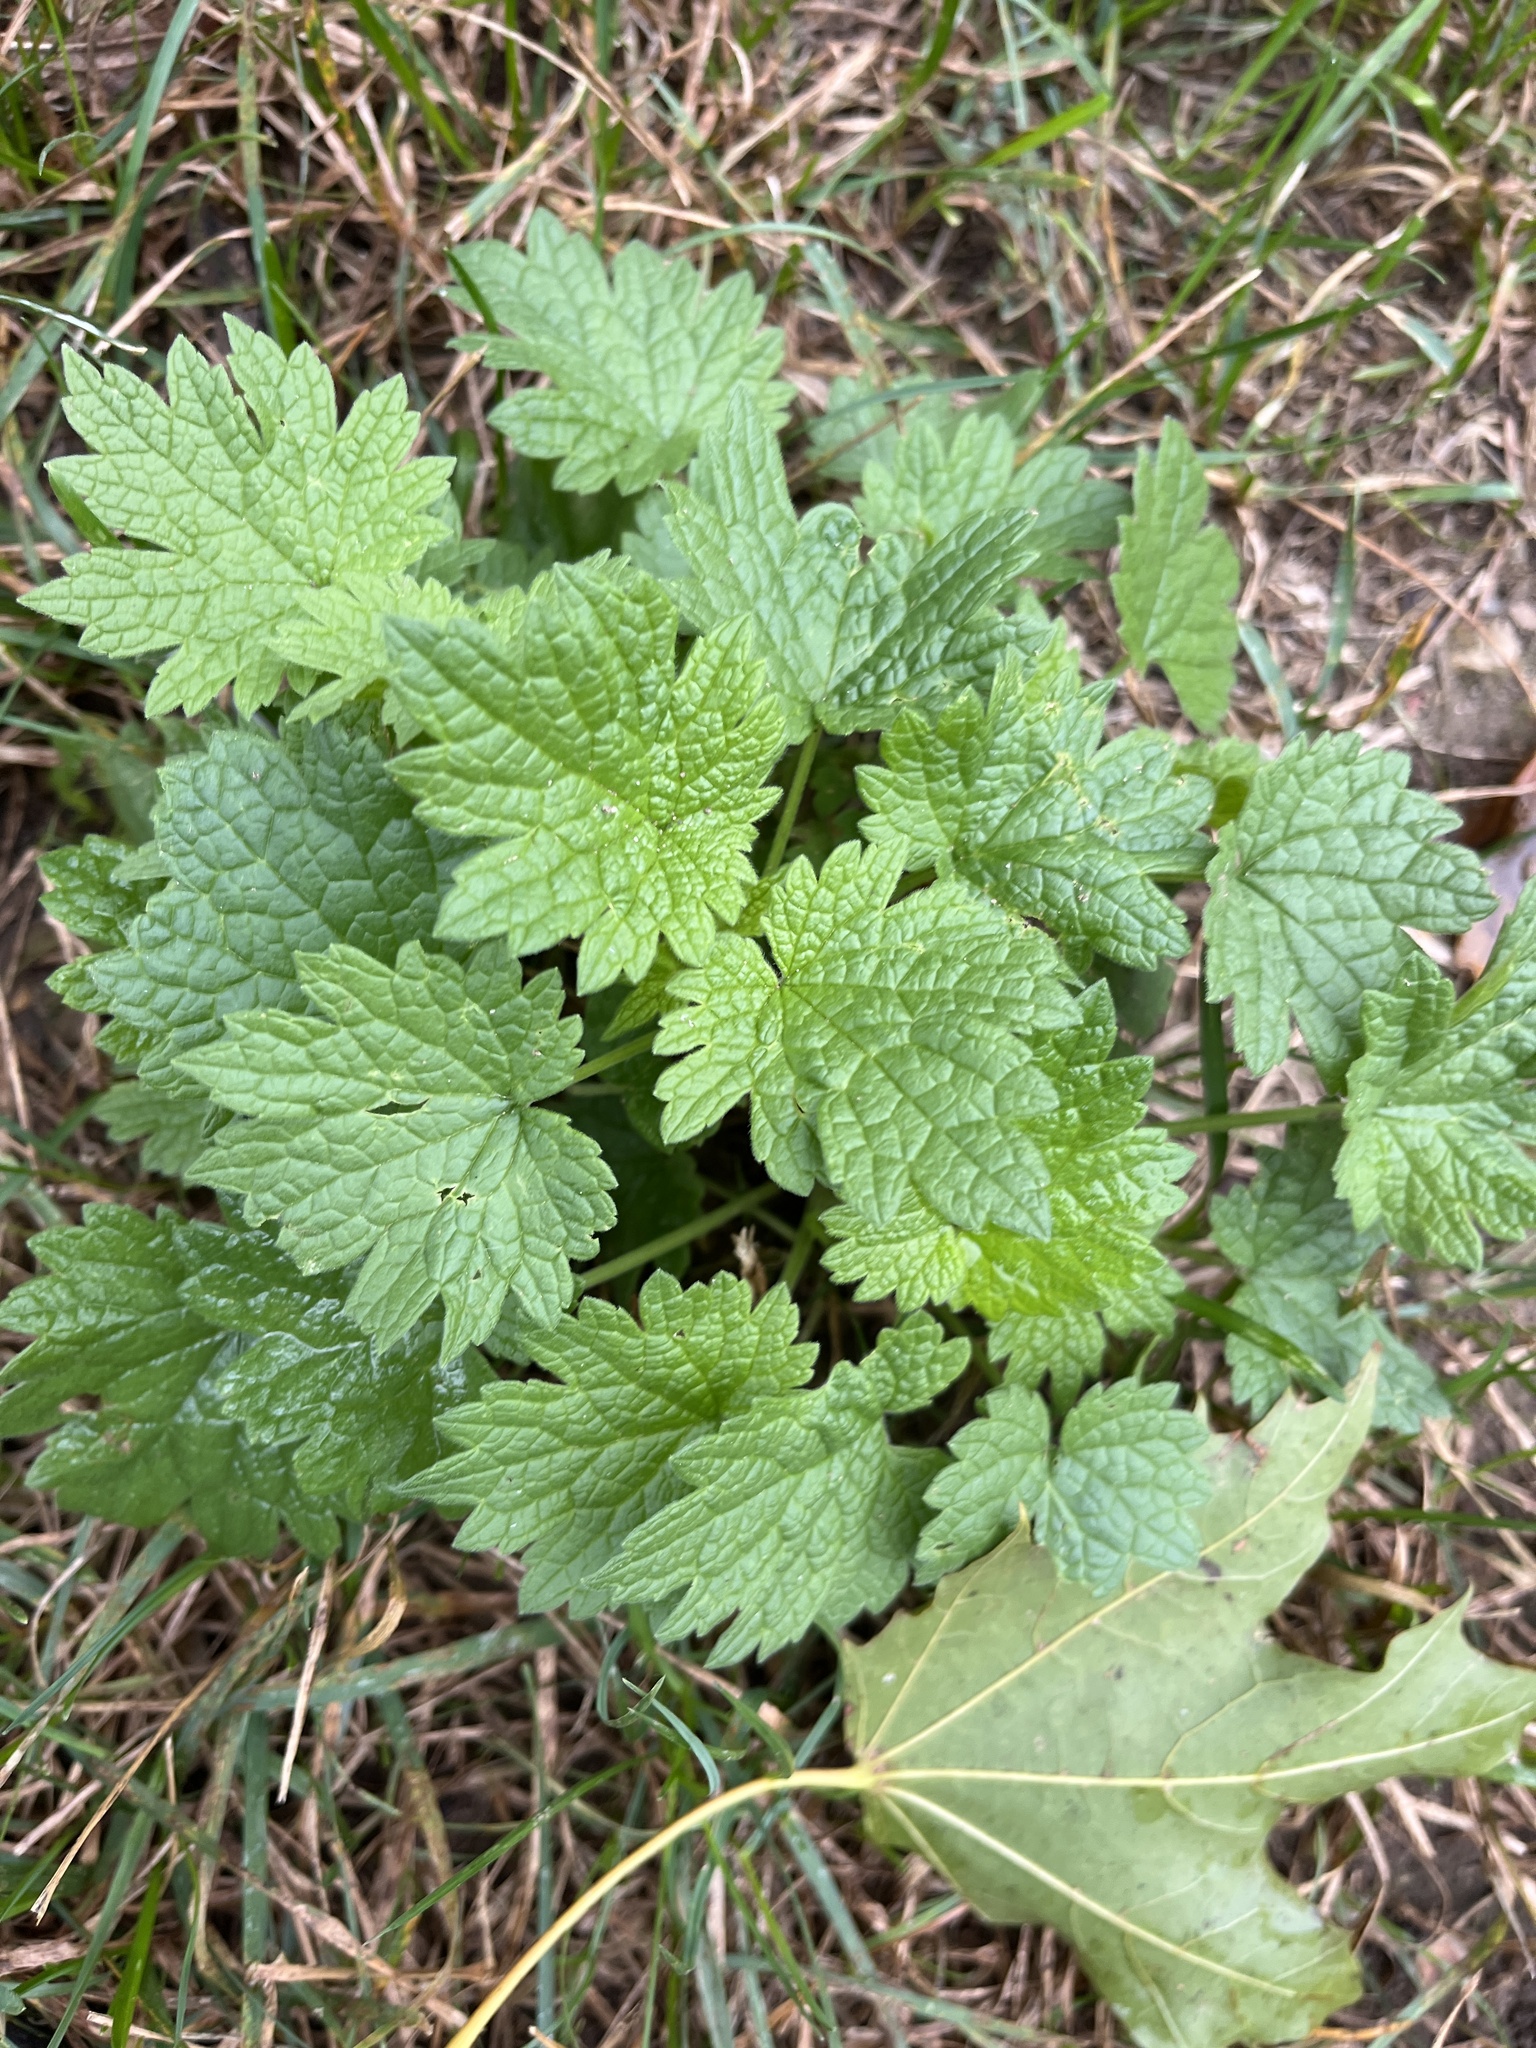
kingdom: Plantae
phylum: Tracheophyta
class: Magnoliopsida
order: Lamiales
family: Lamiaceae
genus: Leonurus
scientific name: Leonurus cardiaca
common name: Motherwort
